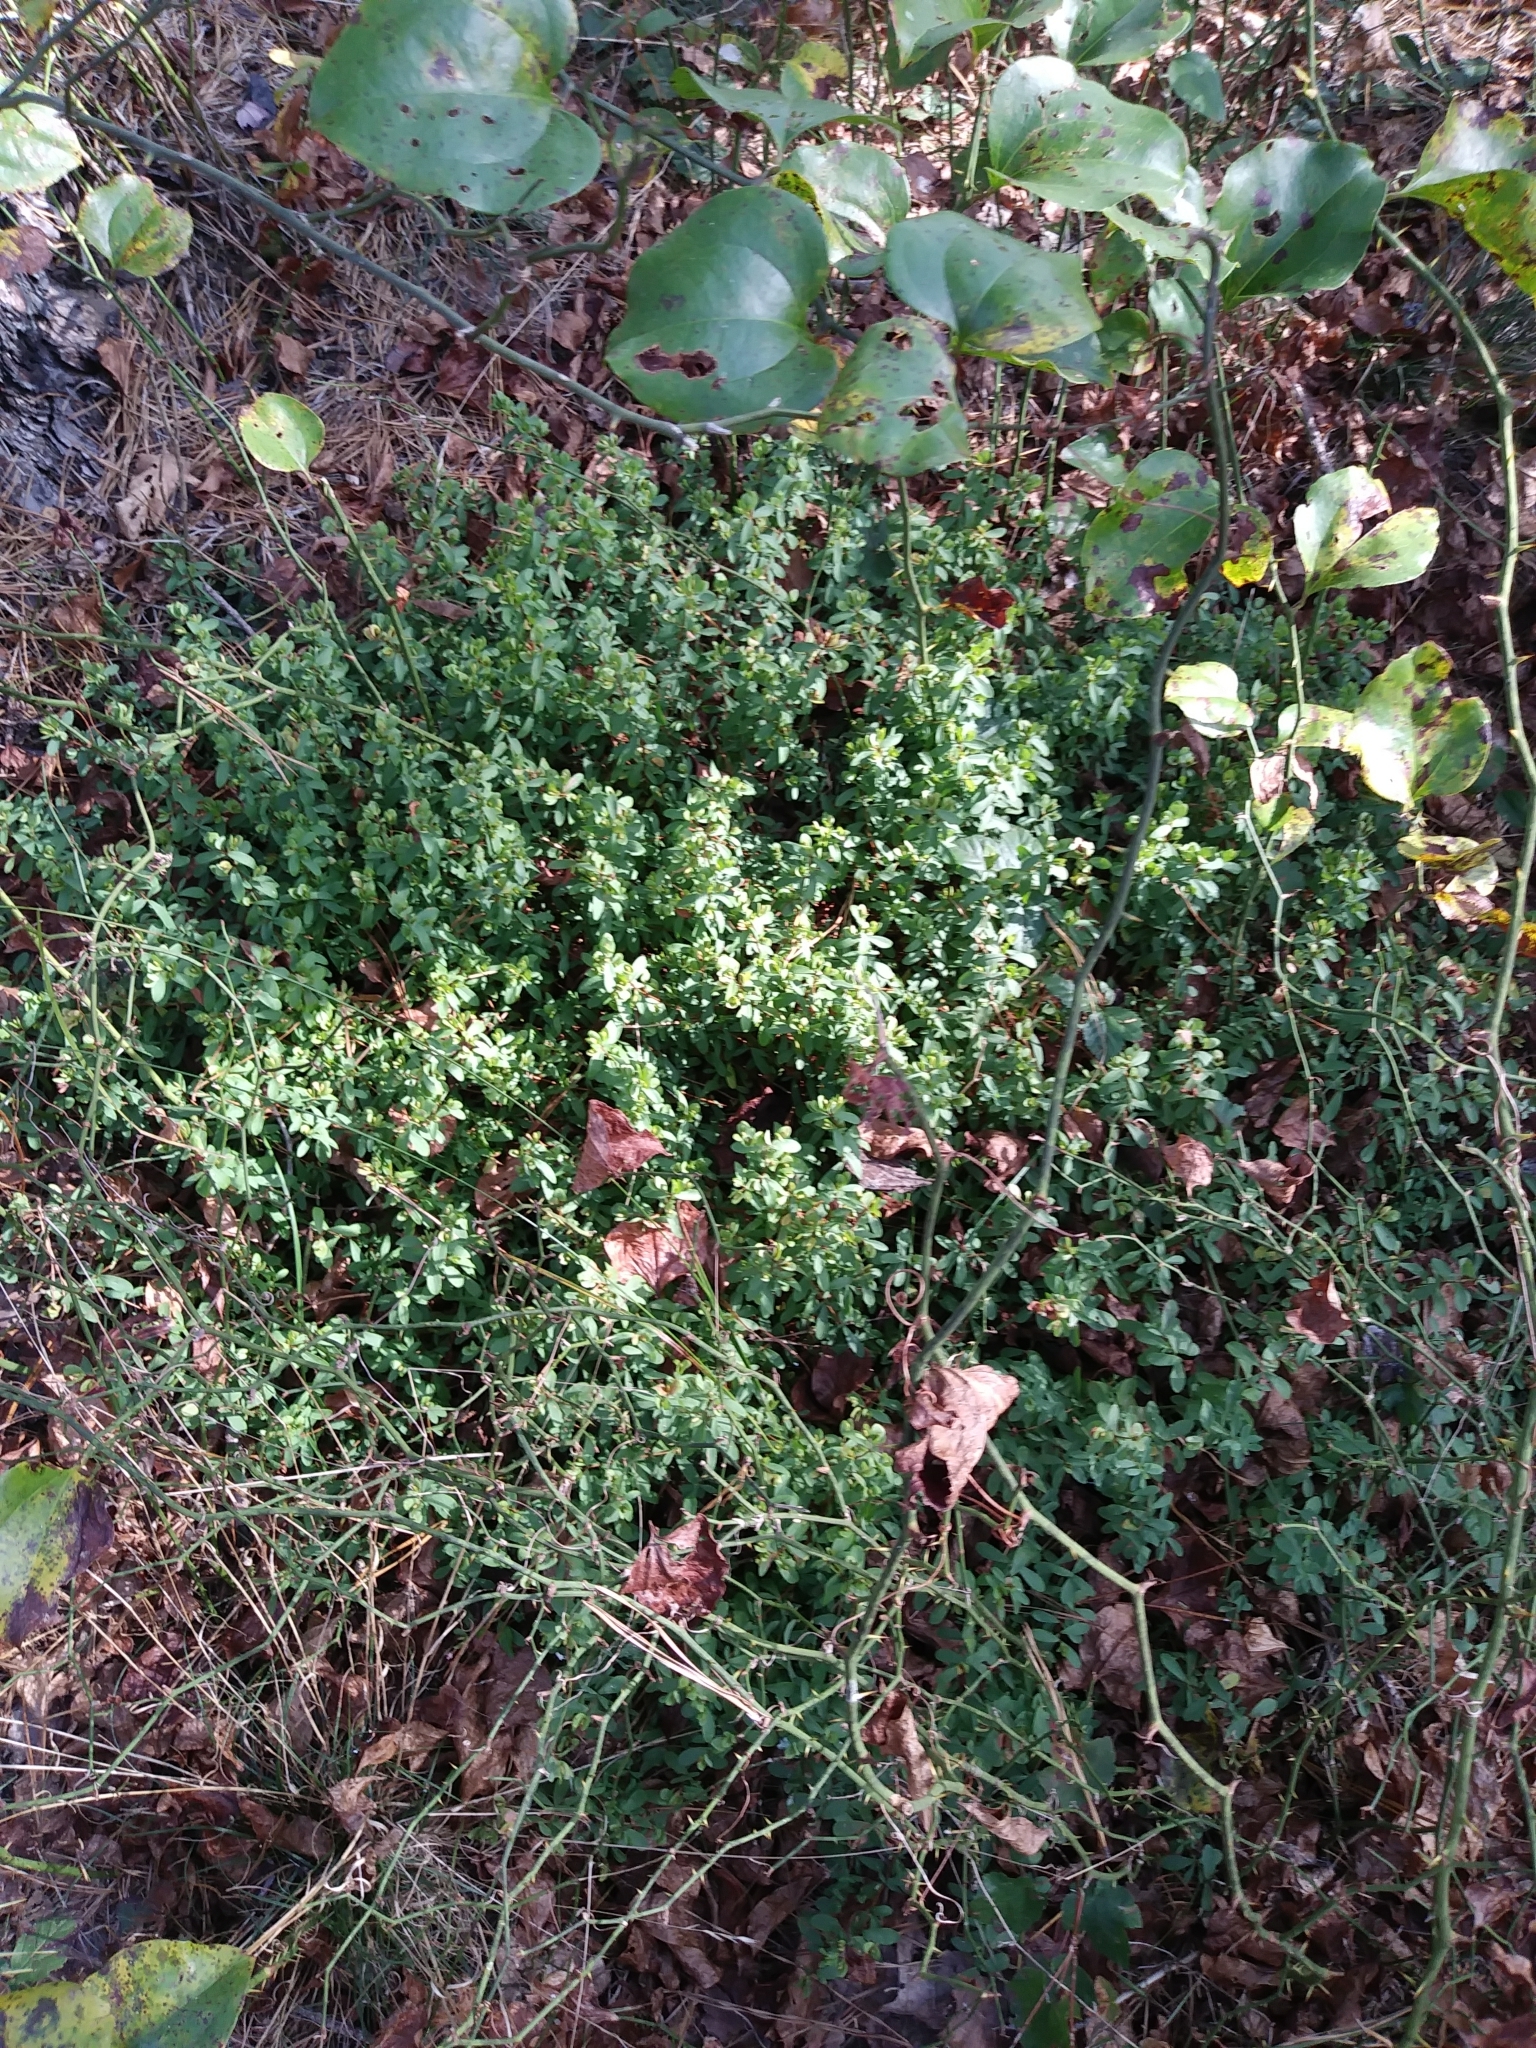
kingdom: Plantae
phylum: Tracheophyta
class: Magnoliopsida
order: Malpighiales
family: Hypericaceae
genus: Hypericum
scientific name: Hypericum hypericoides
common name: St. andrew's cross
